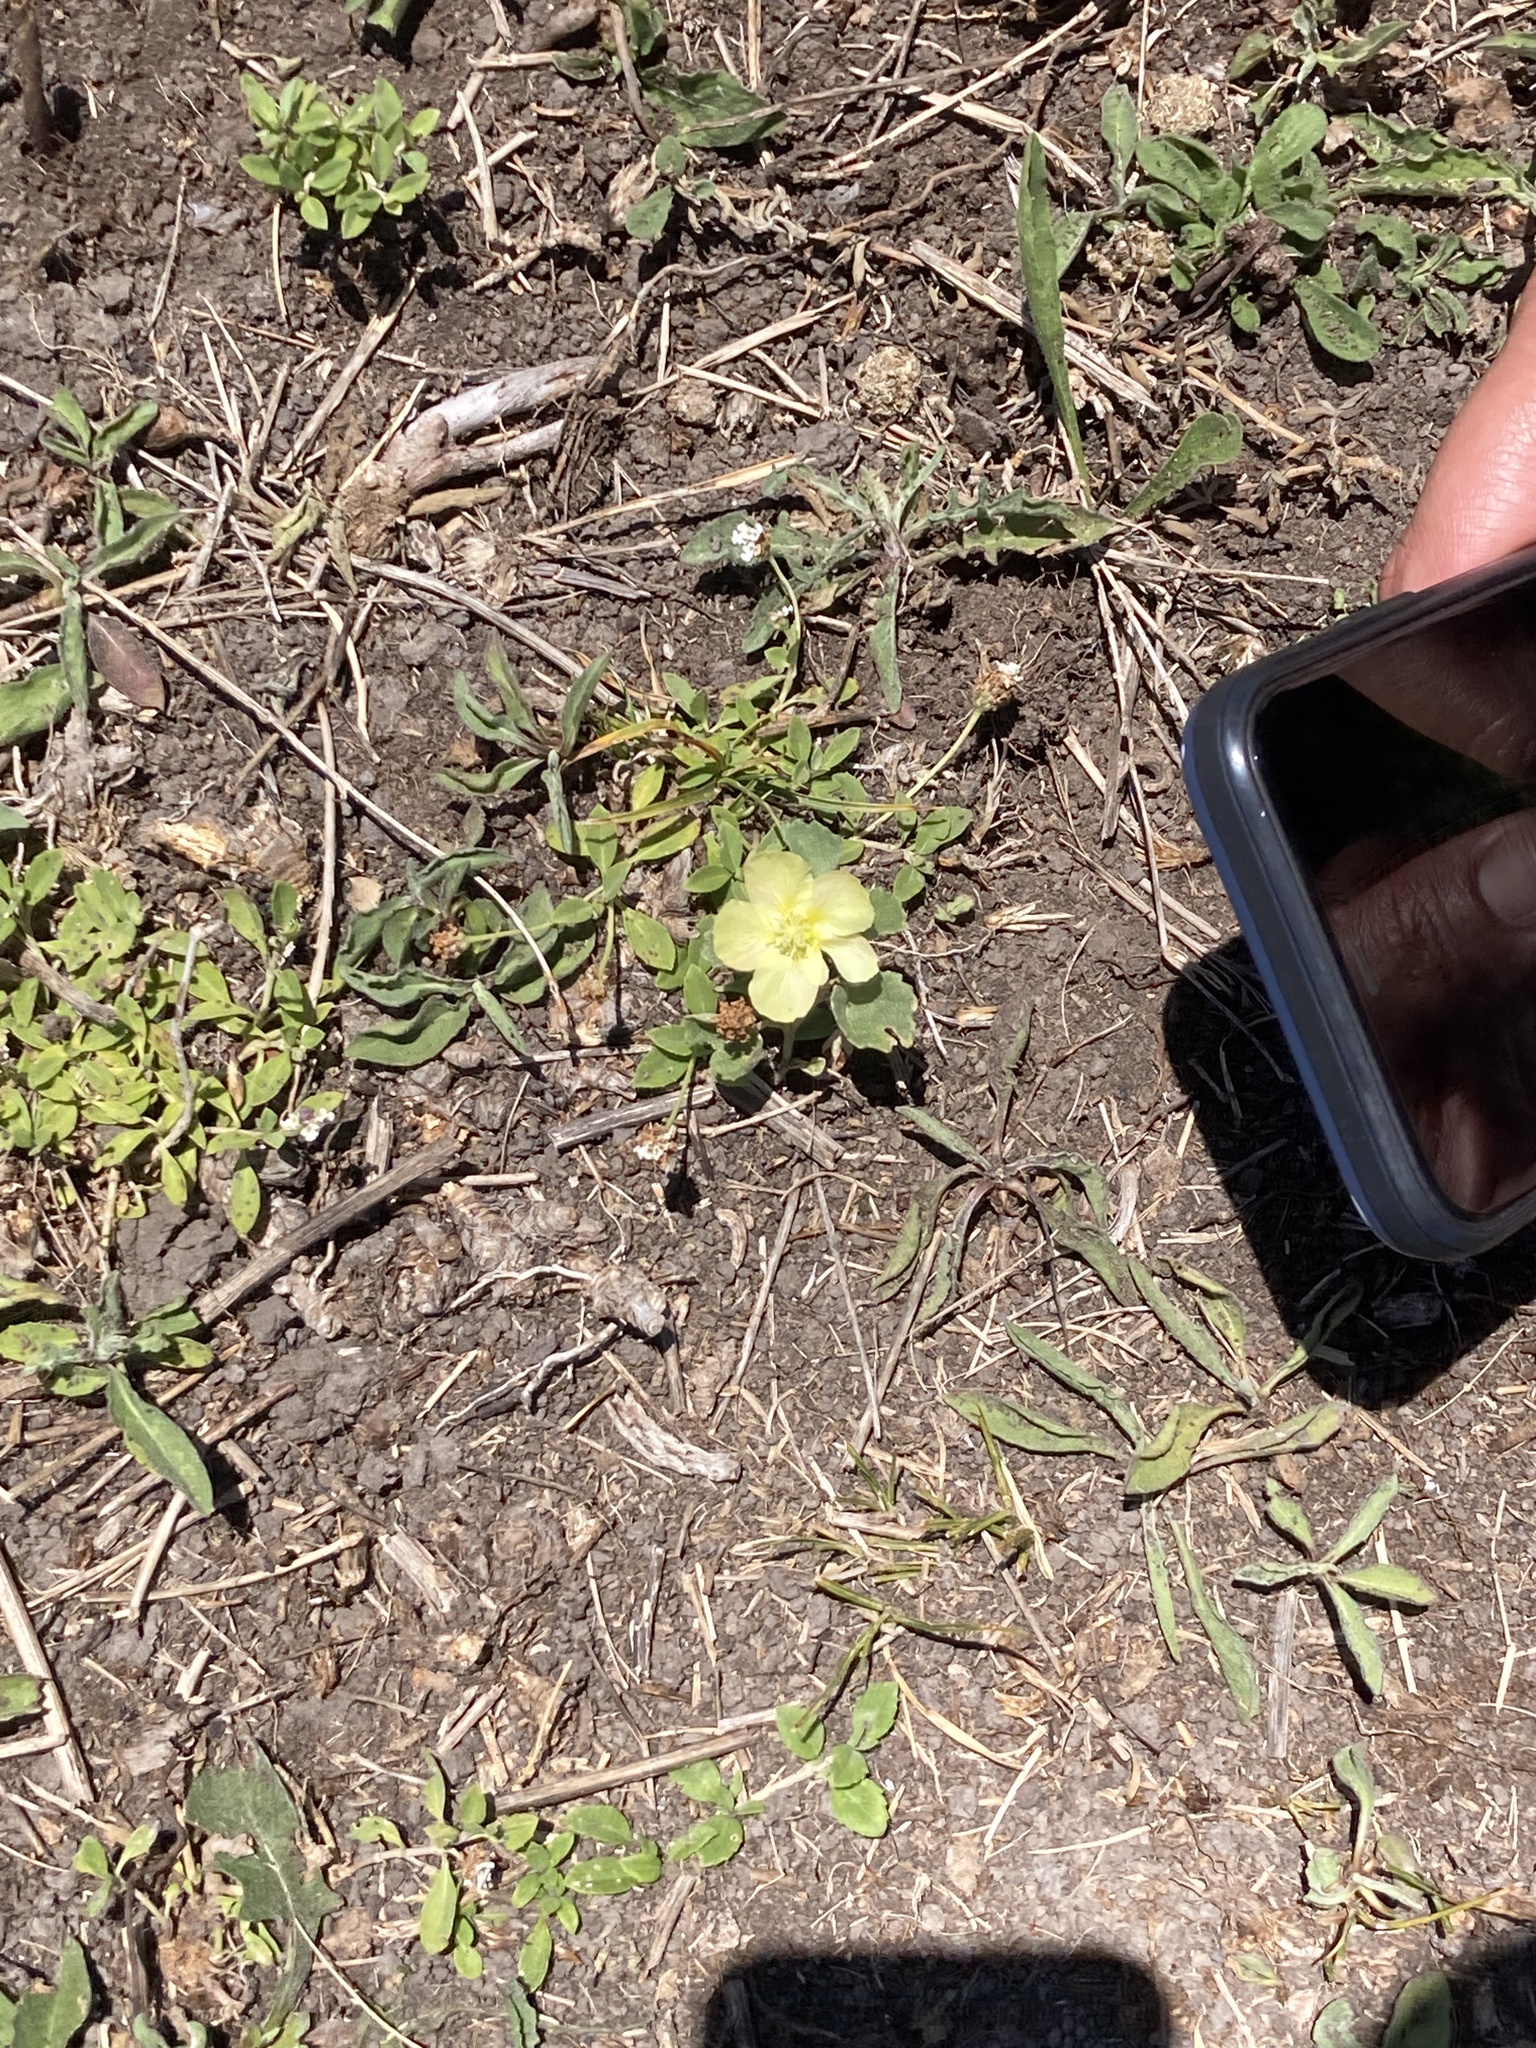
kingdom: Plantae
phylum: Tracheophyta
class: Magnoliopsida
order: Malvales
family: Malvaceae
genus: Malvella
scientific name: Malvella leprosa
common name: Alkali-mallow
